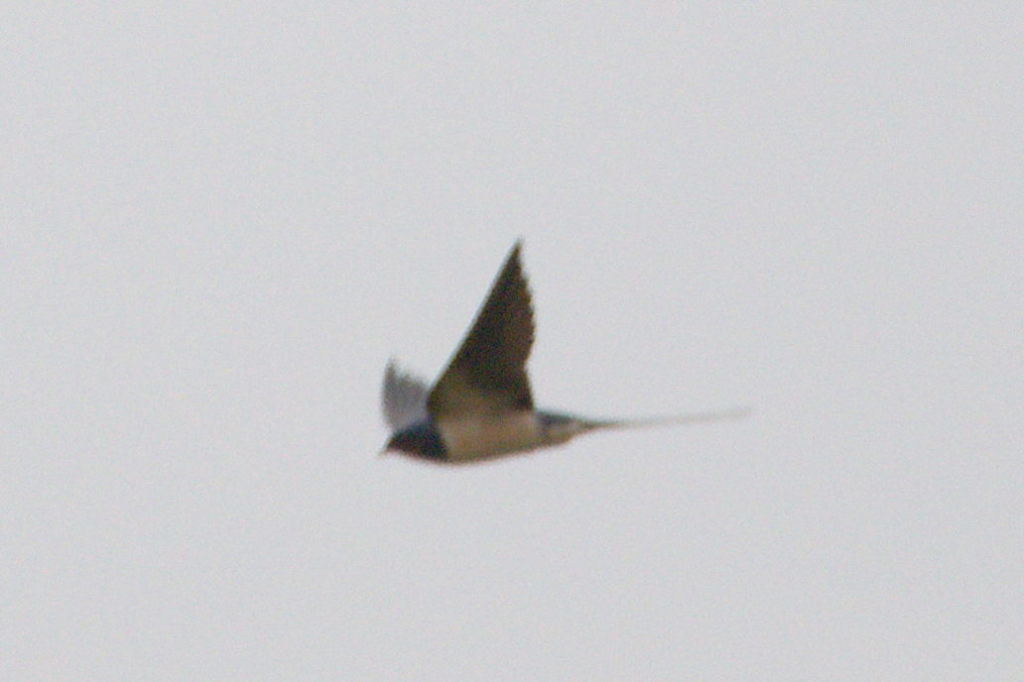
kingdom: Animalia
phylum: Chordata
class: Aves
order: Passeriformes
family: Hirundinidae
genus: Hirundo
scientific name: Hirundo rustica
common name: Barn swallow
